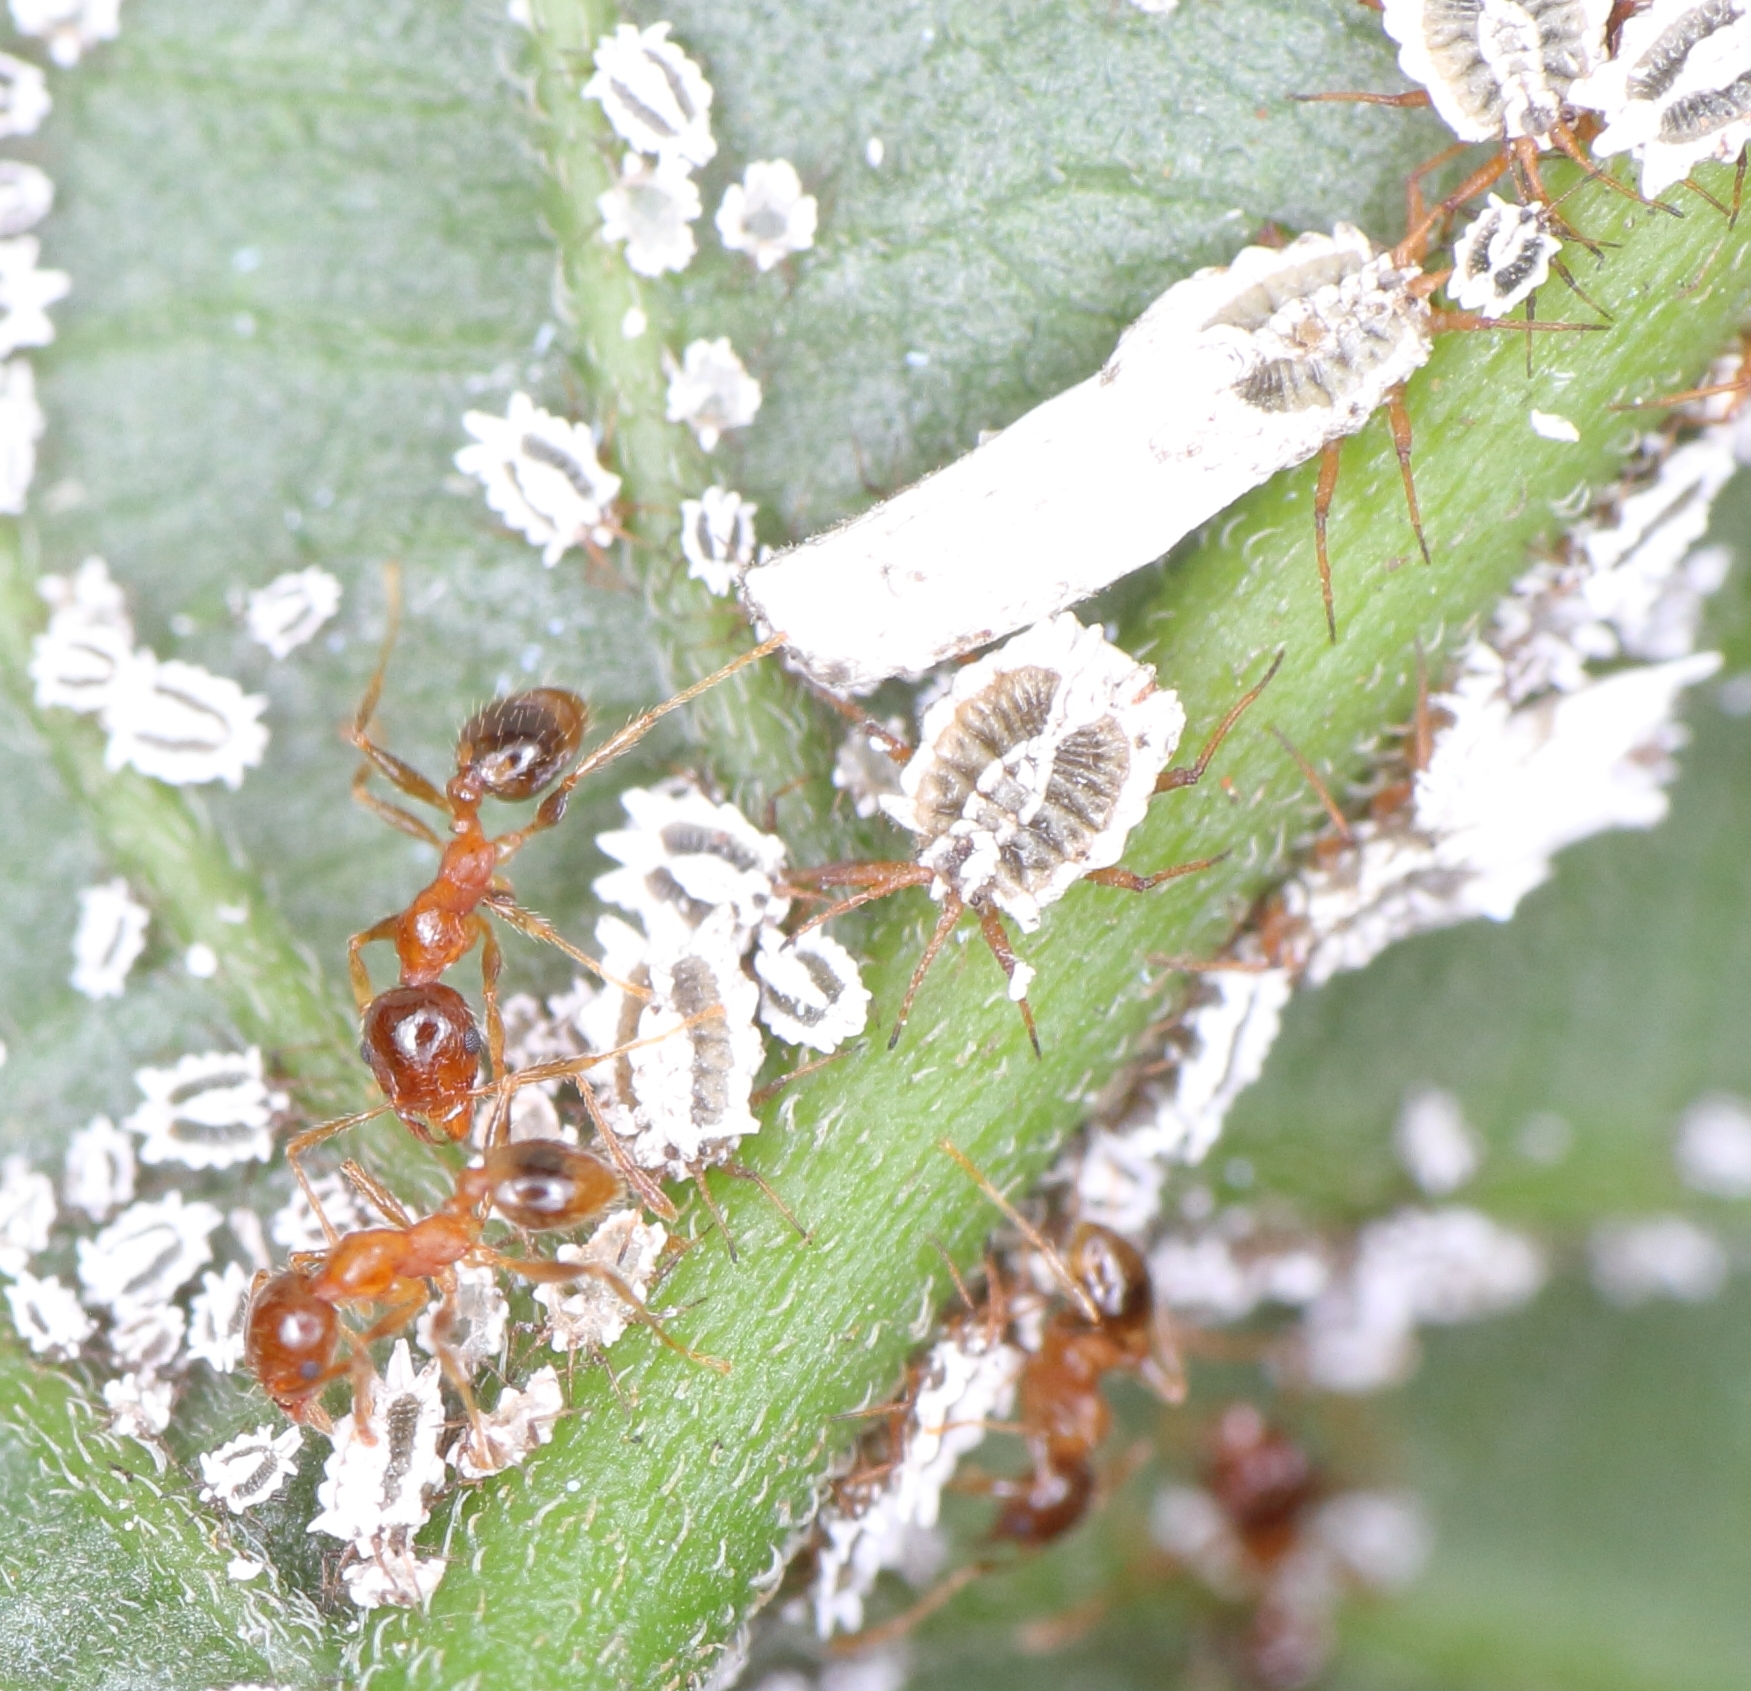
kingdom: Animalia
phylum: Arthropoda
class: Insecta
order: Hemiptera
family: Ortheziidae
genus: Insignorthezia
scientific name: Insignorthezia insignis
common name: Greenhouse orthezia
